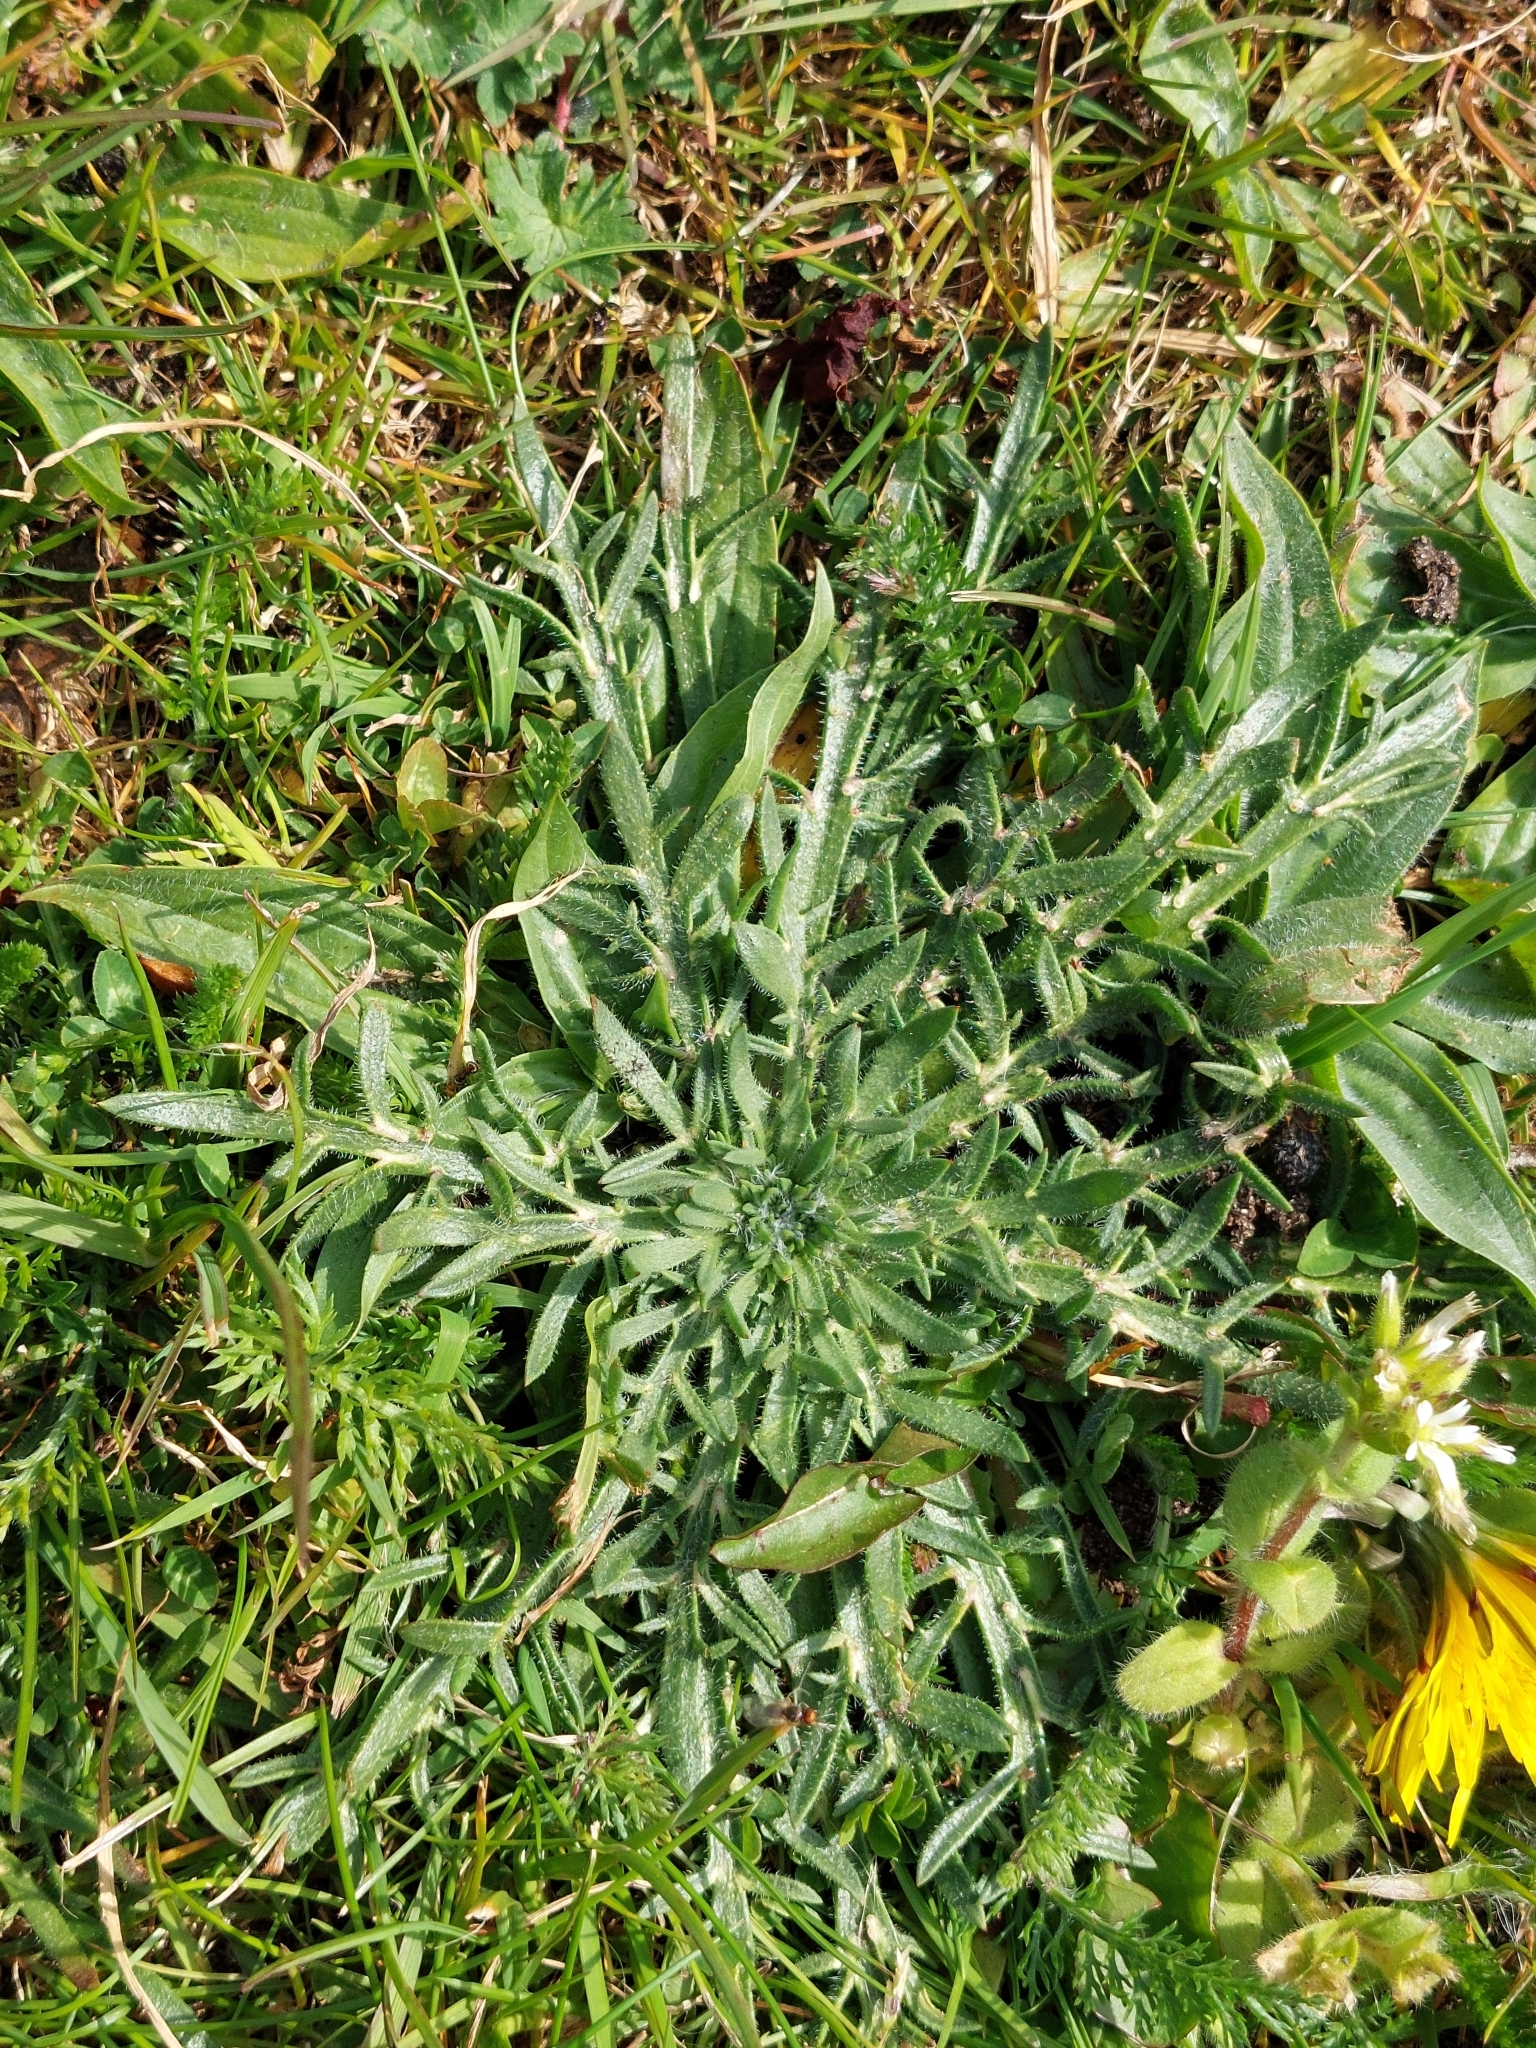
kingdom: Plantae
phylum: Tracheophyta
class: Magnoliopsida
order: Lamiales
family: Plantaginaceae
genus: Plantago
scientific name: Plantago coronopus
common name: Buck's-horn plantain
